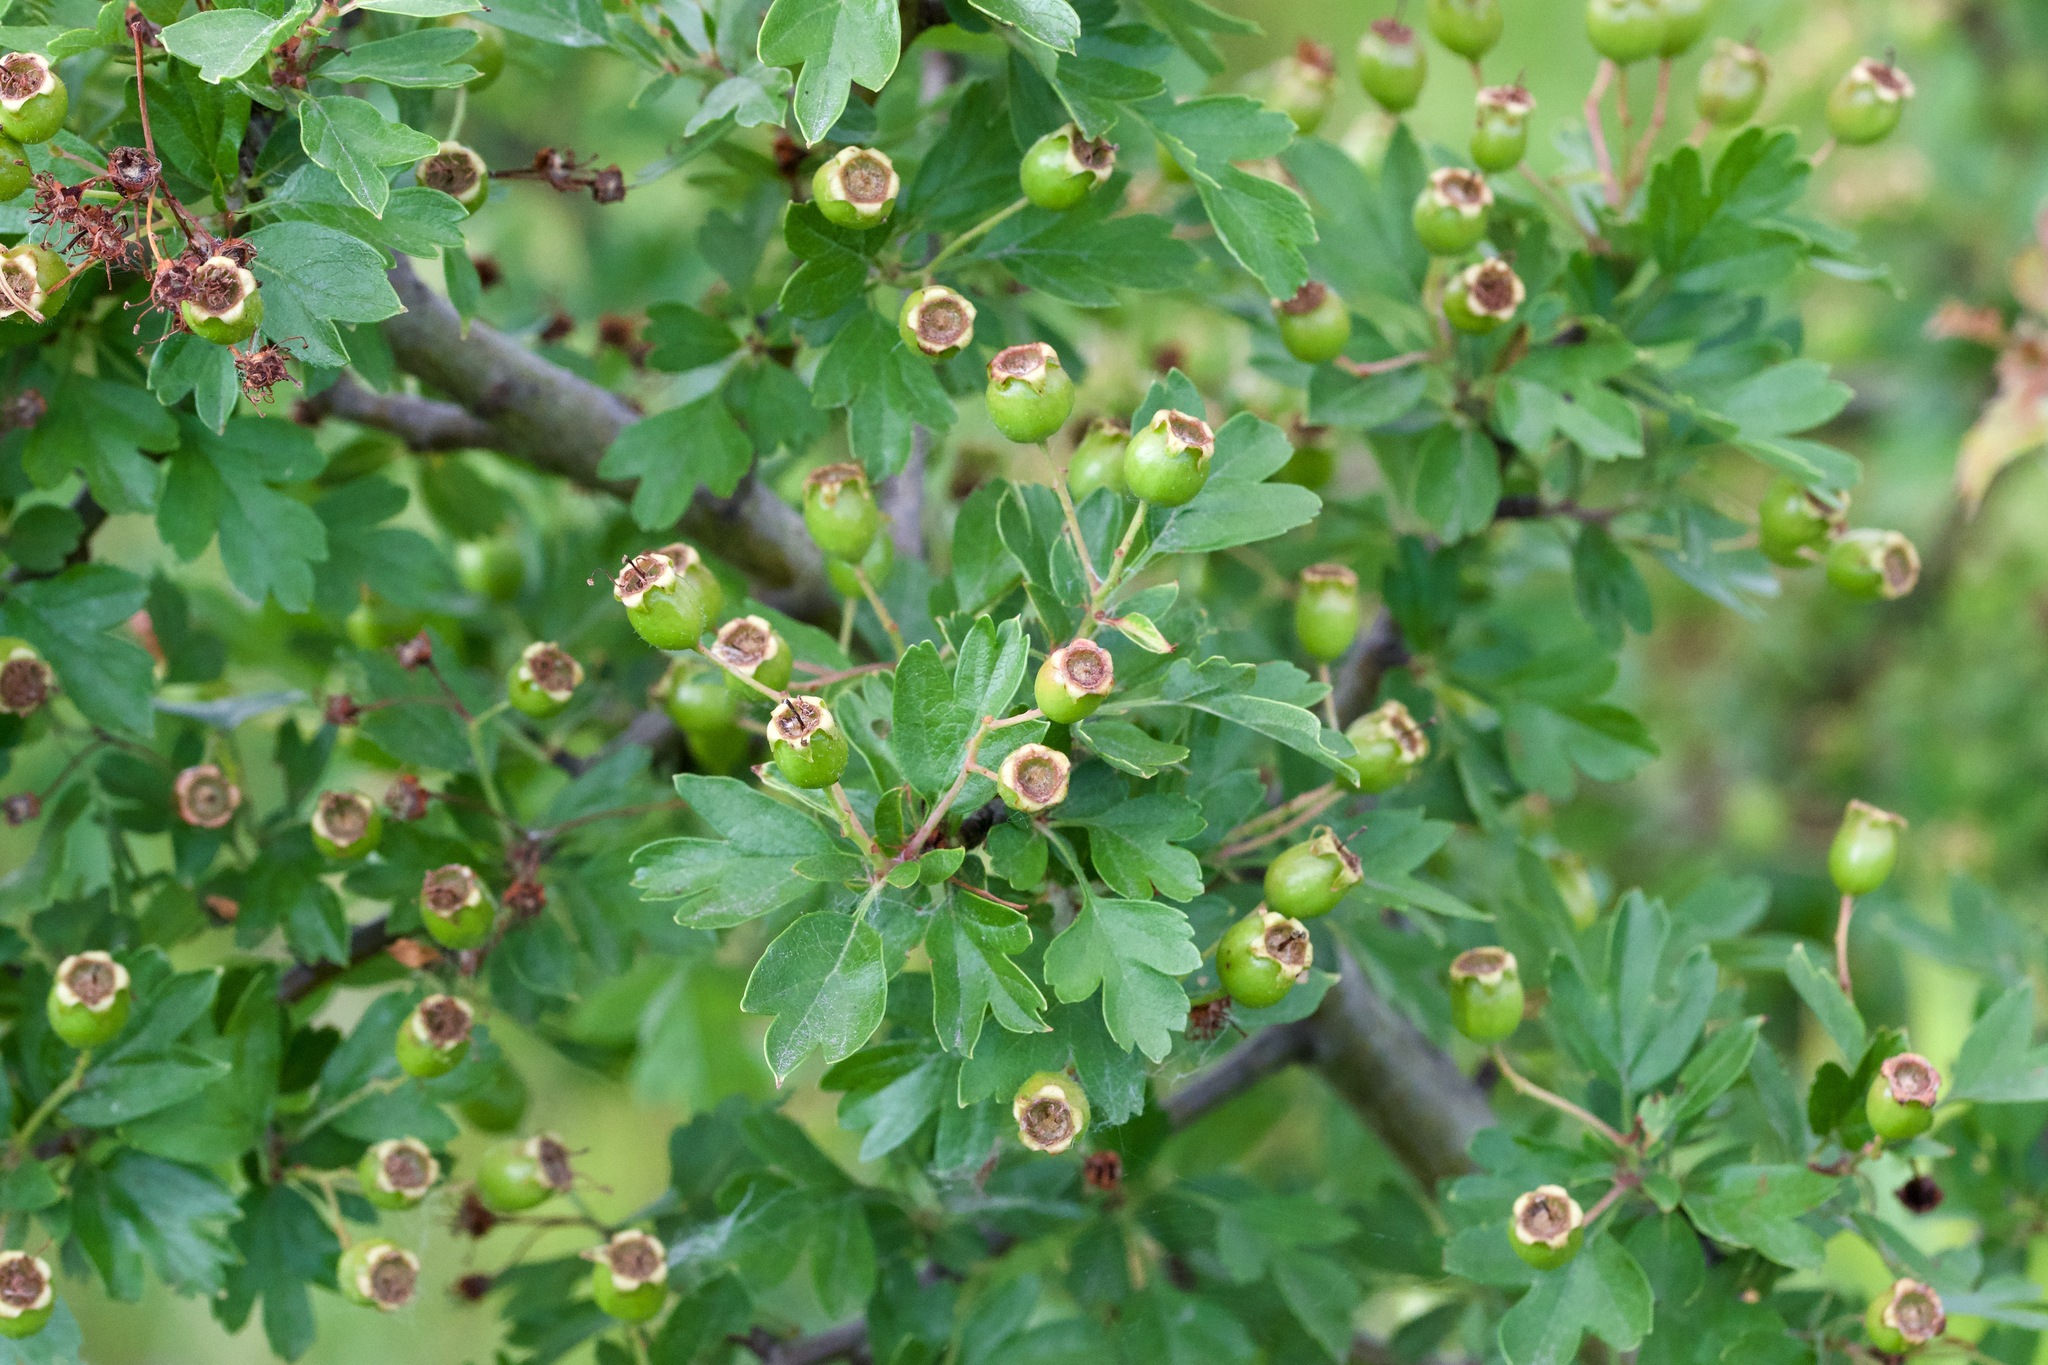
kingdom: Plantae
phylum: Tracheophyta
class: Magnoliopsida
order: Rosales
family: Rosaceae
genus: Crataegus
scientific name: Crataegus monogyna
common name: Hawthorn
